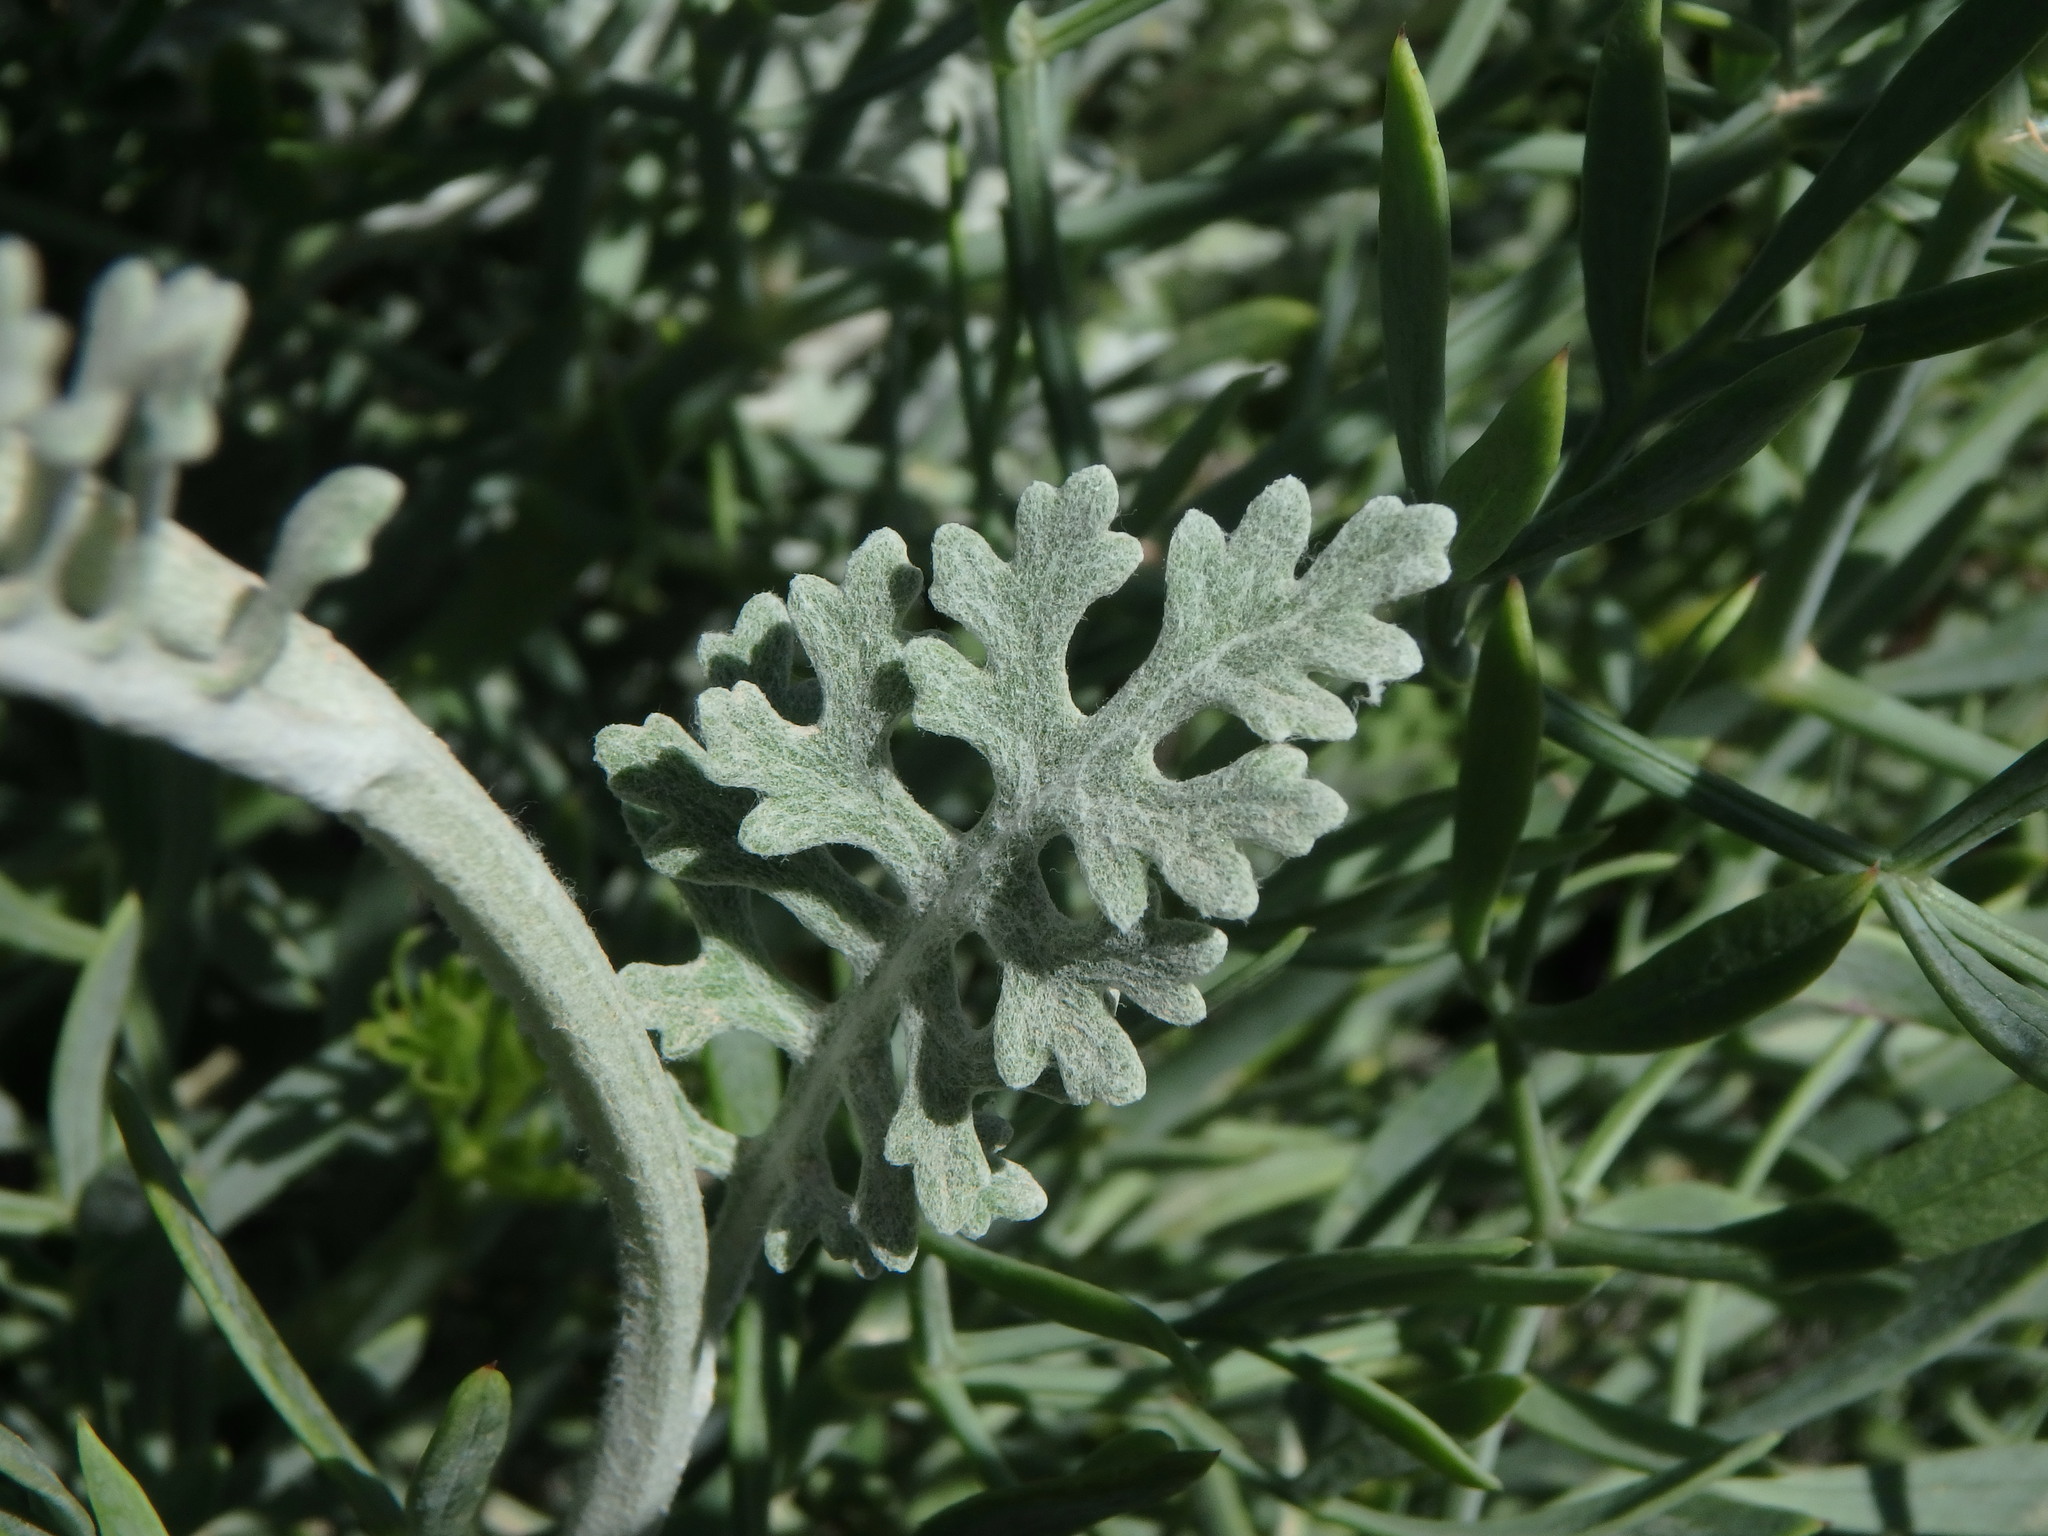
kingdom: Plantae
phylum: Tracheophyta
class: Magnoliopsida
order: Asterales
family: Asteraceae
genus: Jacobaea
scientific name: Jacobaea maritima
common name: Silver ragwort
